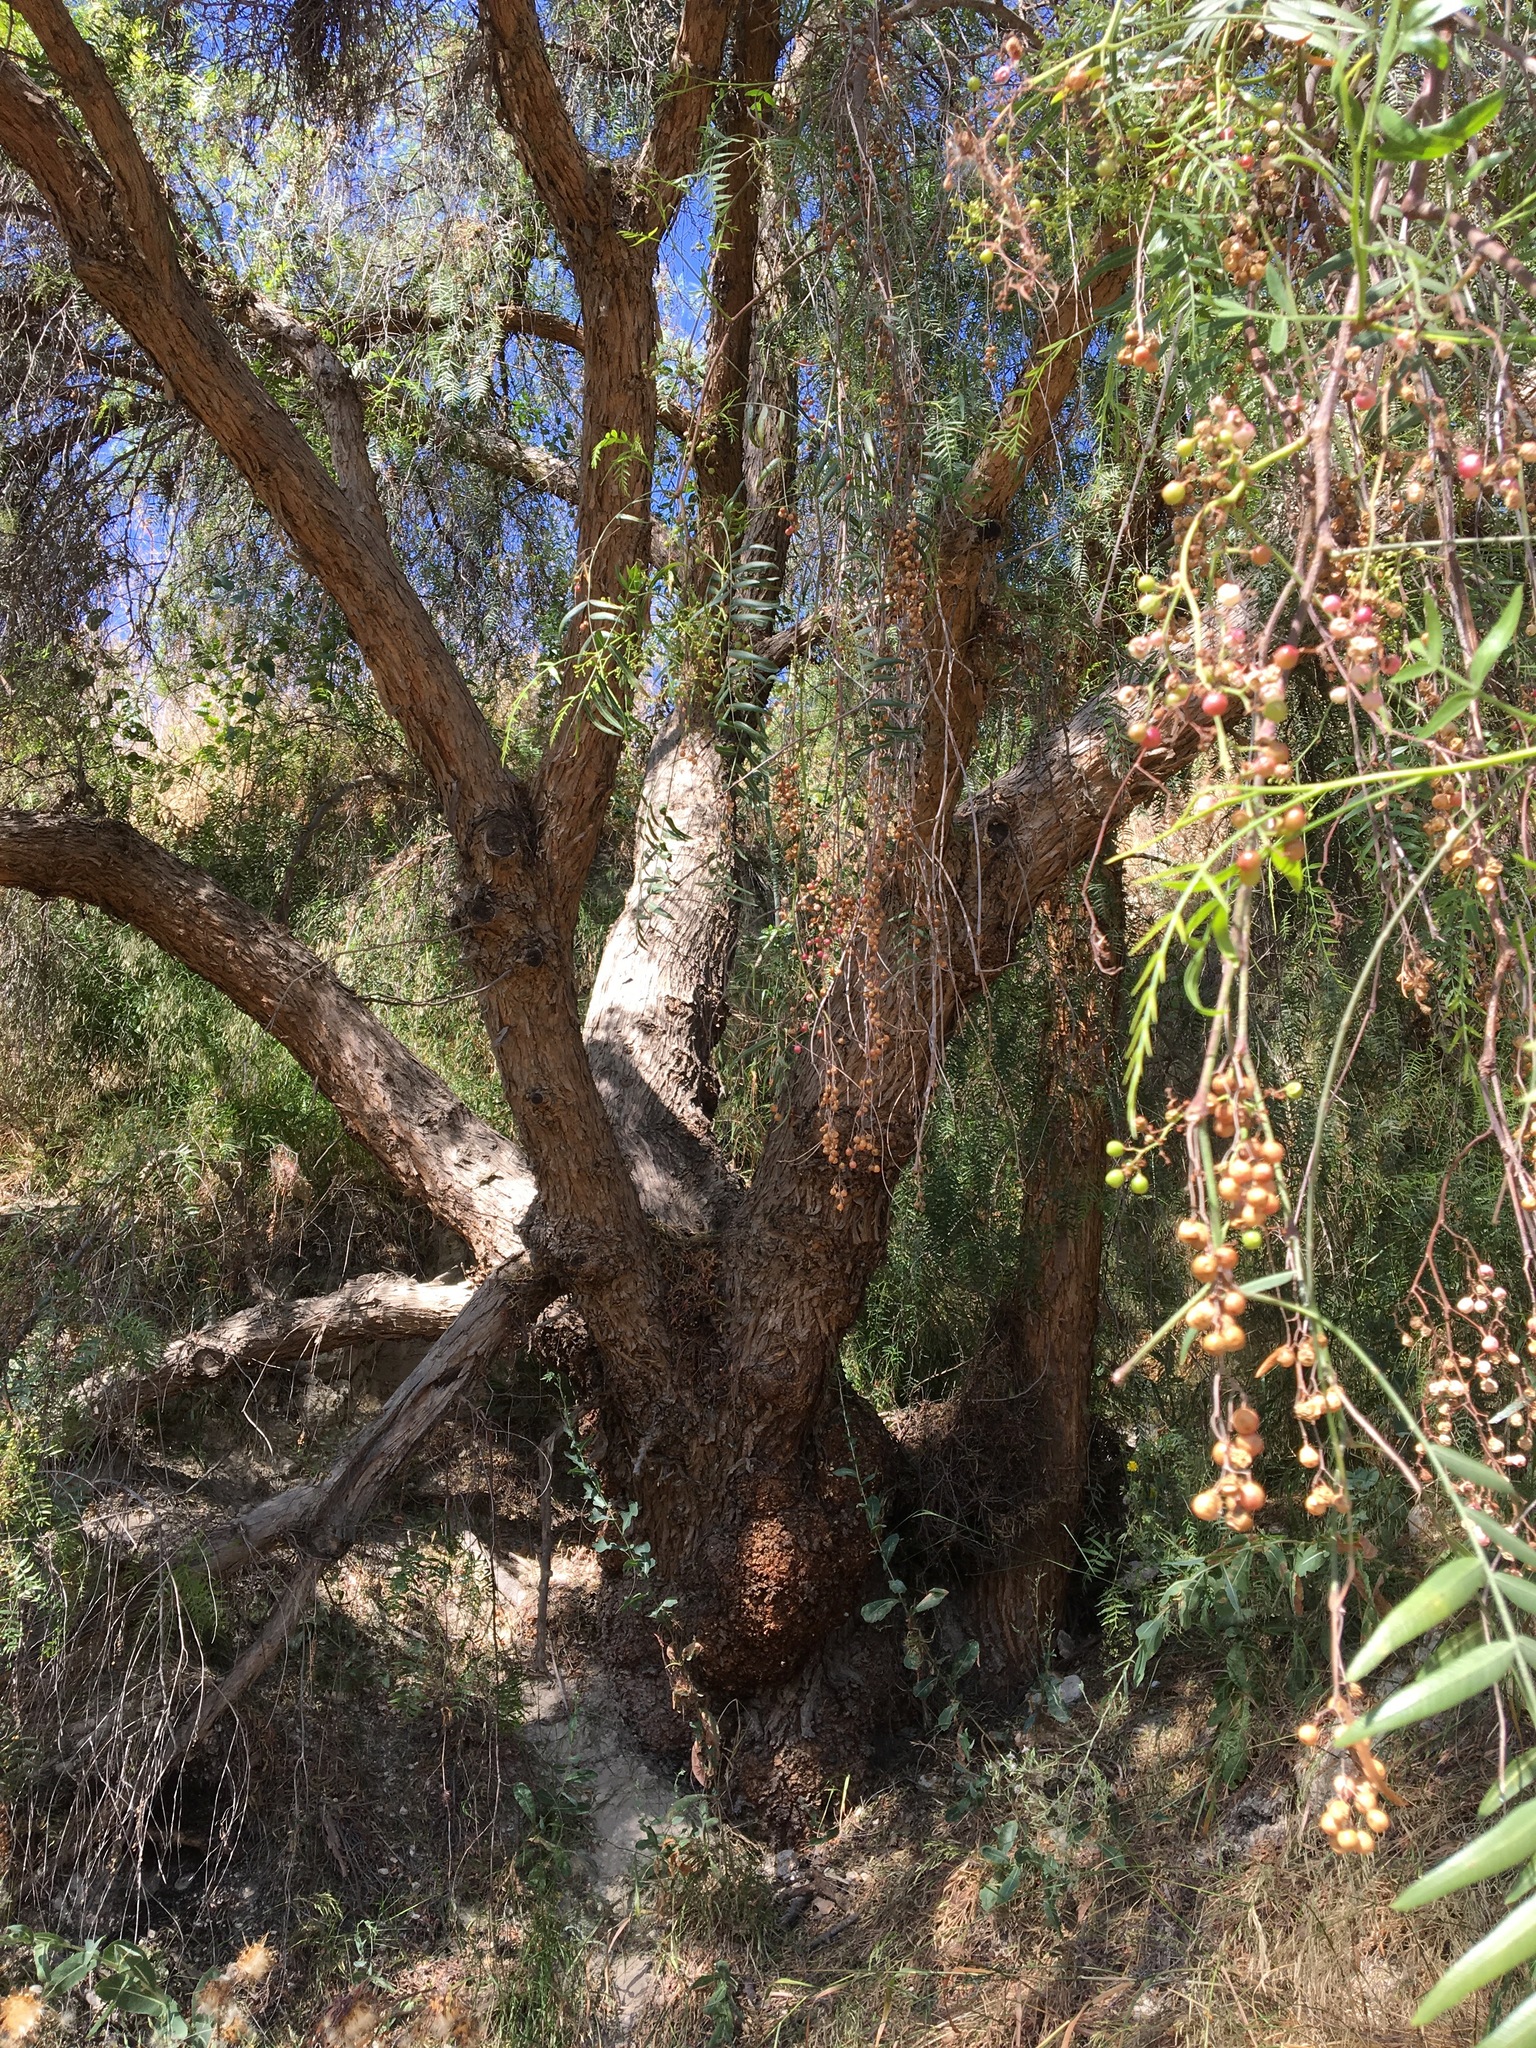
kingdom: Plantae
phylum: Tracheophyta
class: Magnoliopsida
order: Sapindales
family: Anacardiaceae
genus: Schinus
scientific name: Schinus molle
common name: Peruvian peppertree
